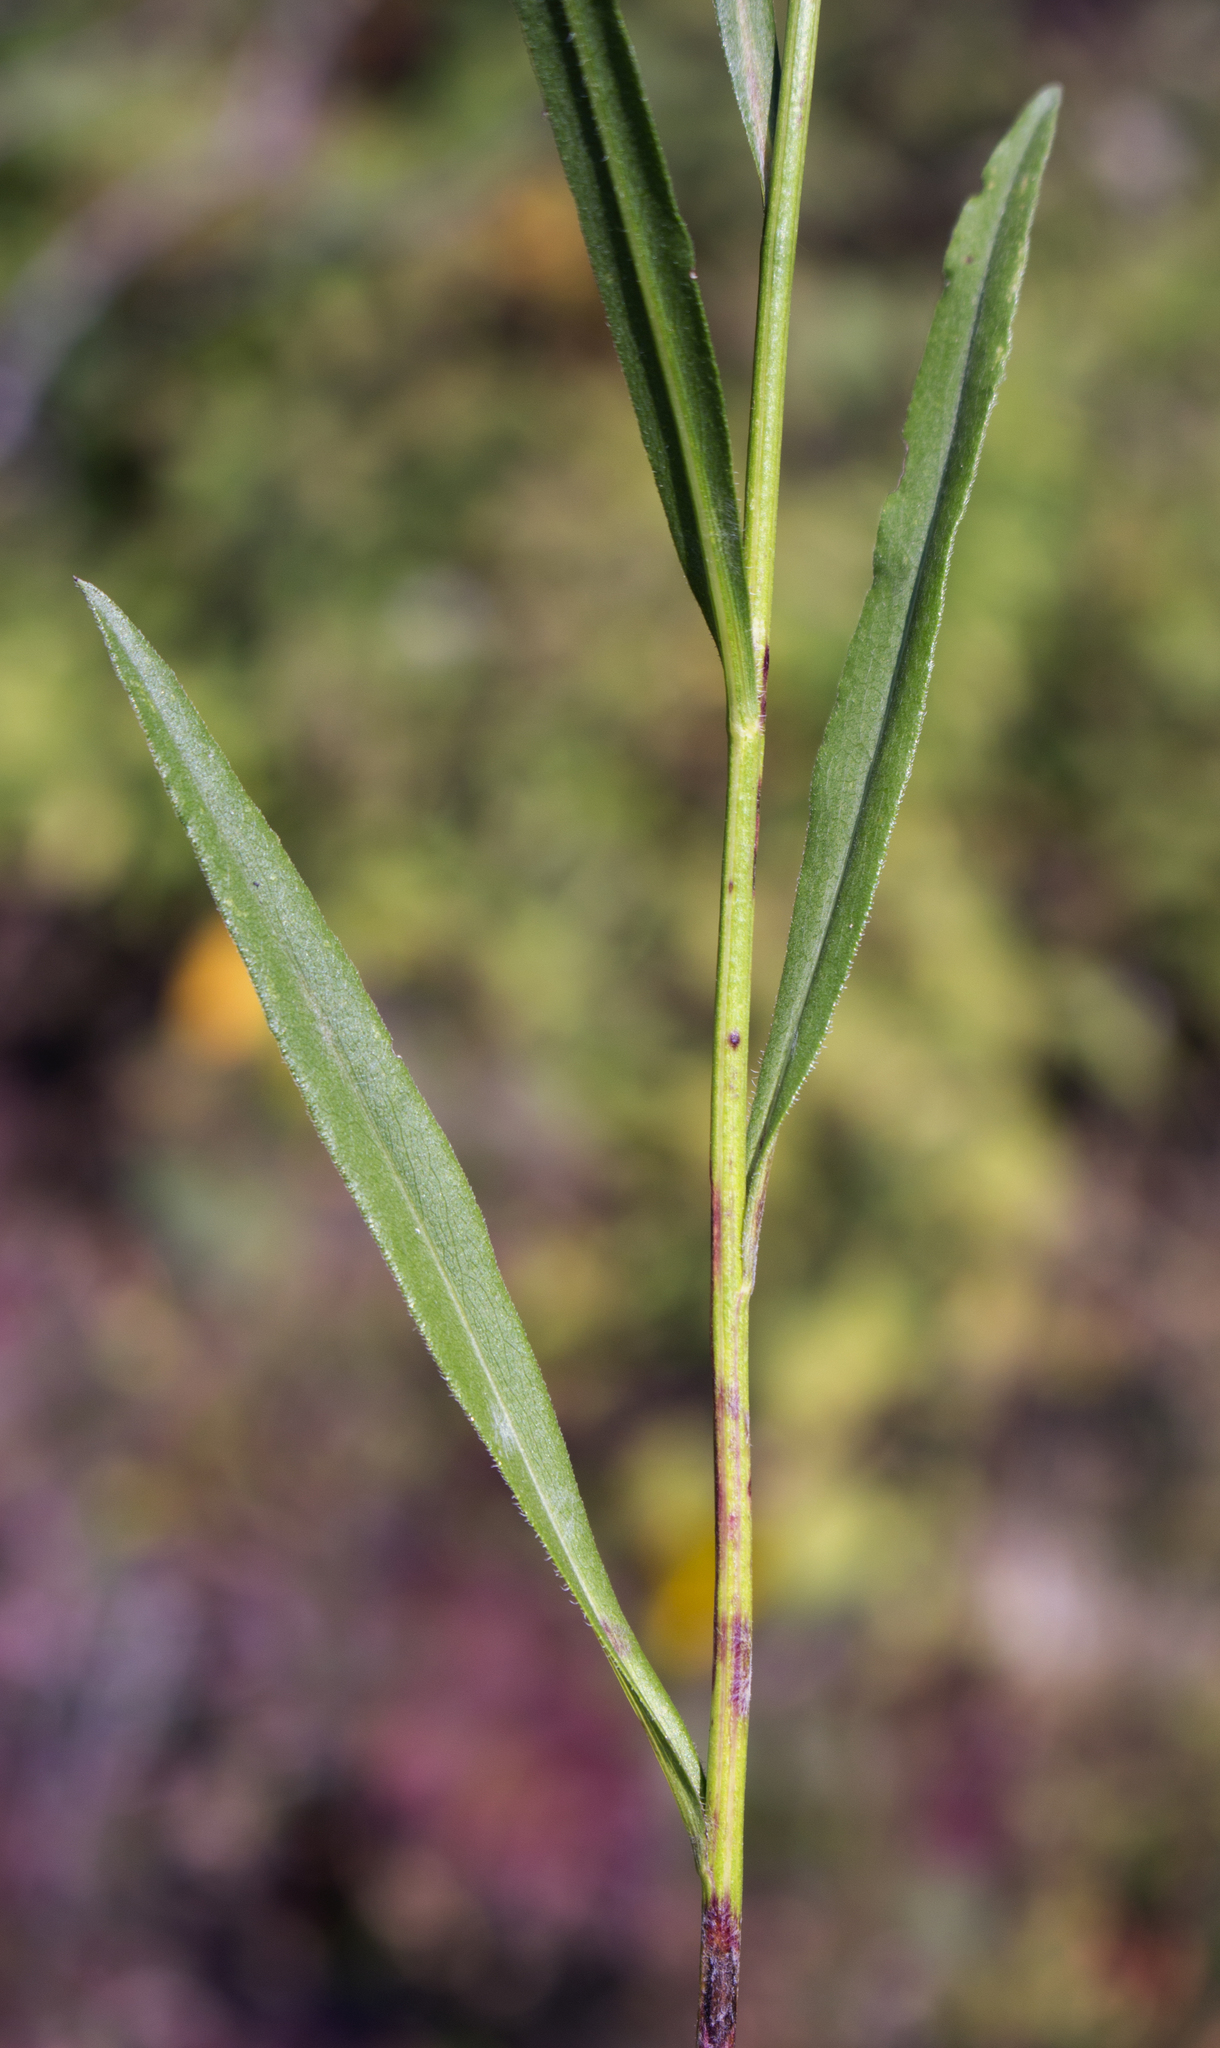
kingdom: Plantae
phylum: Tracheophyta
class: Magnoliopsida
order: Asterales
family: Asteraceae
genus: Symphyotrichum
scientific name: Symphyotrichum oolentangiense
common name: Azure aster
